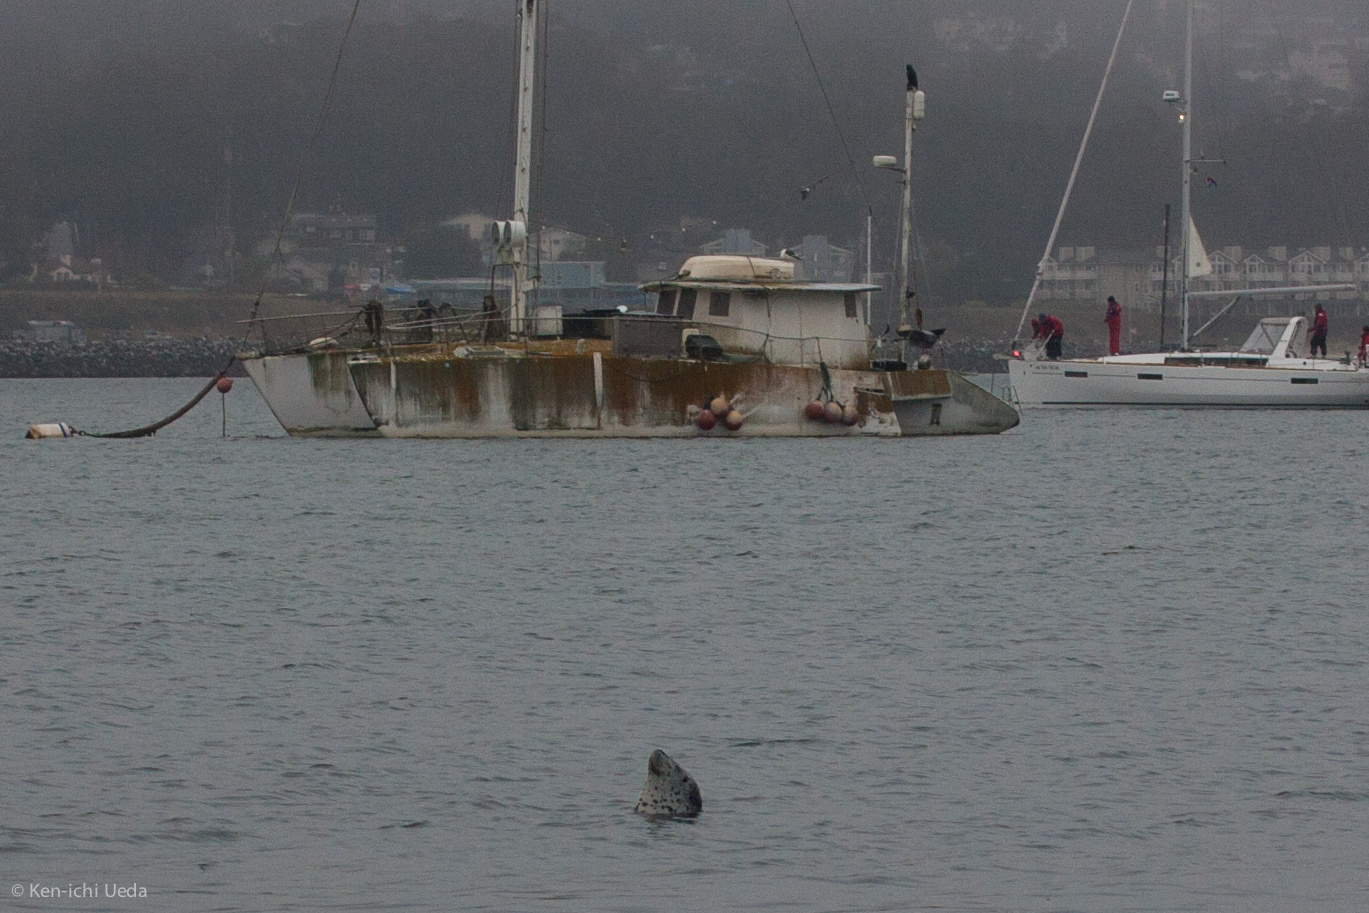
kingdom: Animalia
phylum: Chordata
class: Mammalia
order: Carnivora
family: Phocidae
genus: Phoca
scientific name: Phoca vitulina
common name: Harbor seal
